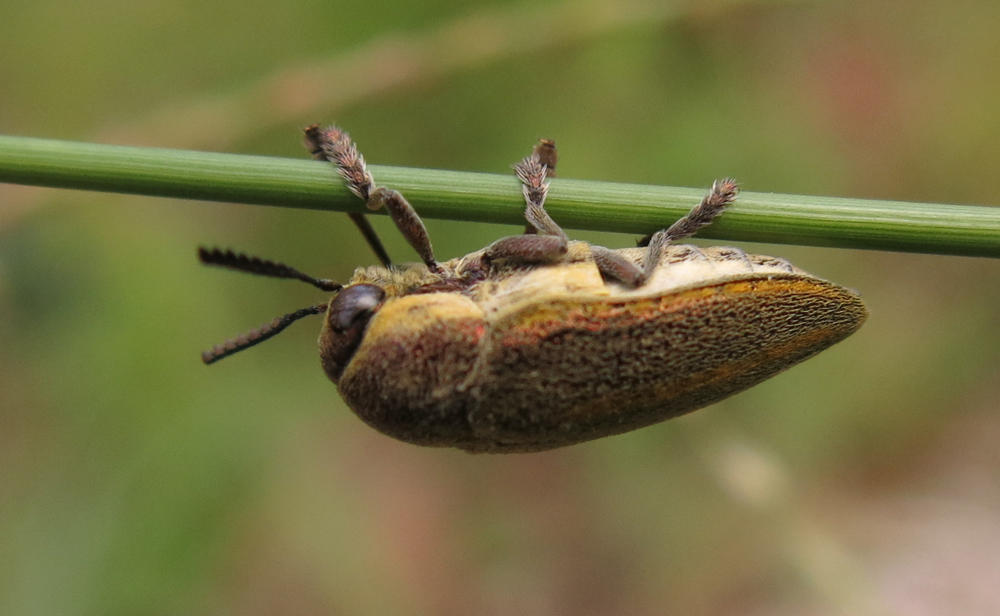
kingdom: Animalia
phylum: Arthropoda
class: Insecta
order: Coleoptera
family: Buprestidae
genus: Neojulodis
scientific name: Neojulodis vittipennis
